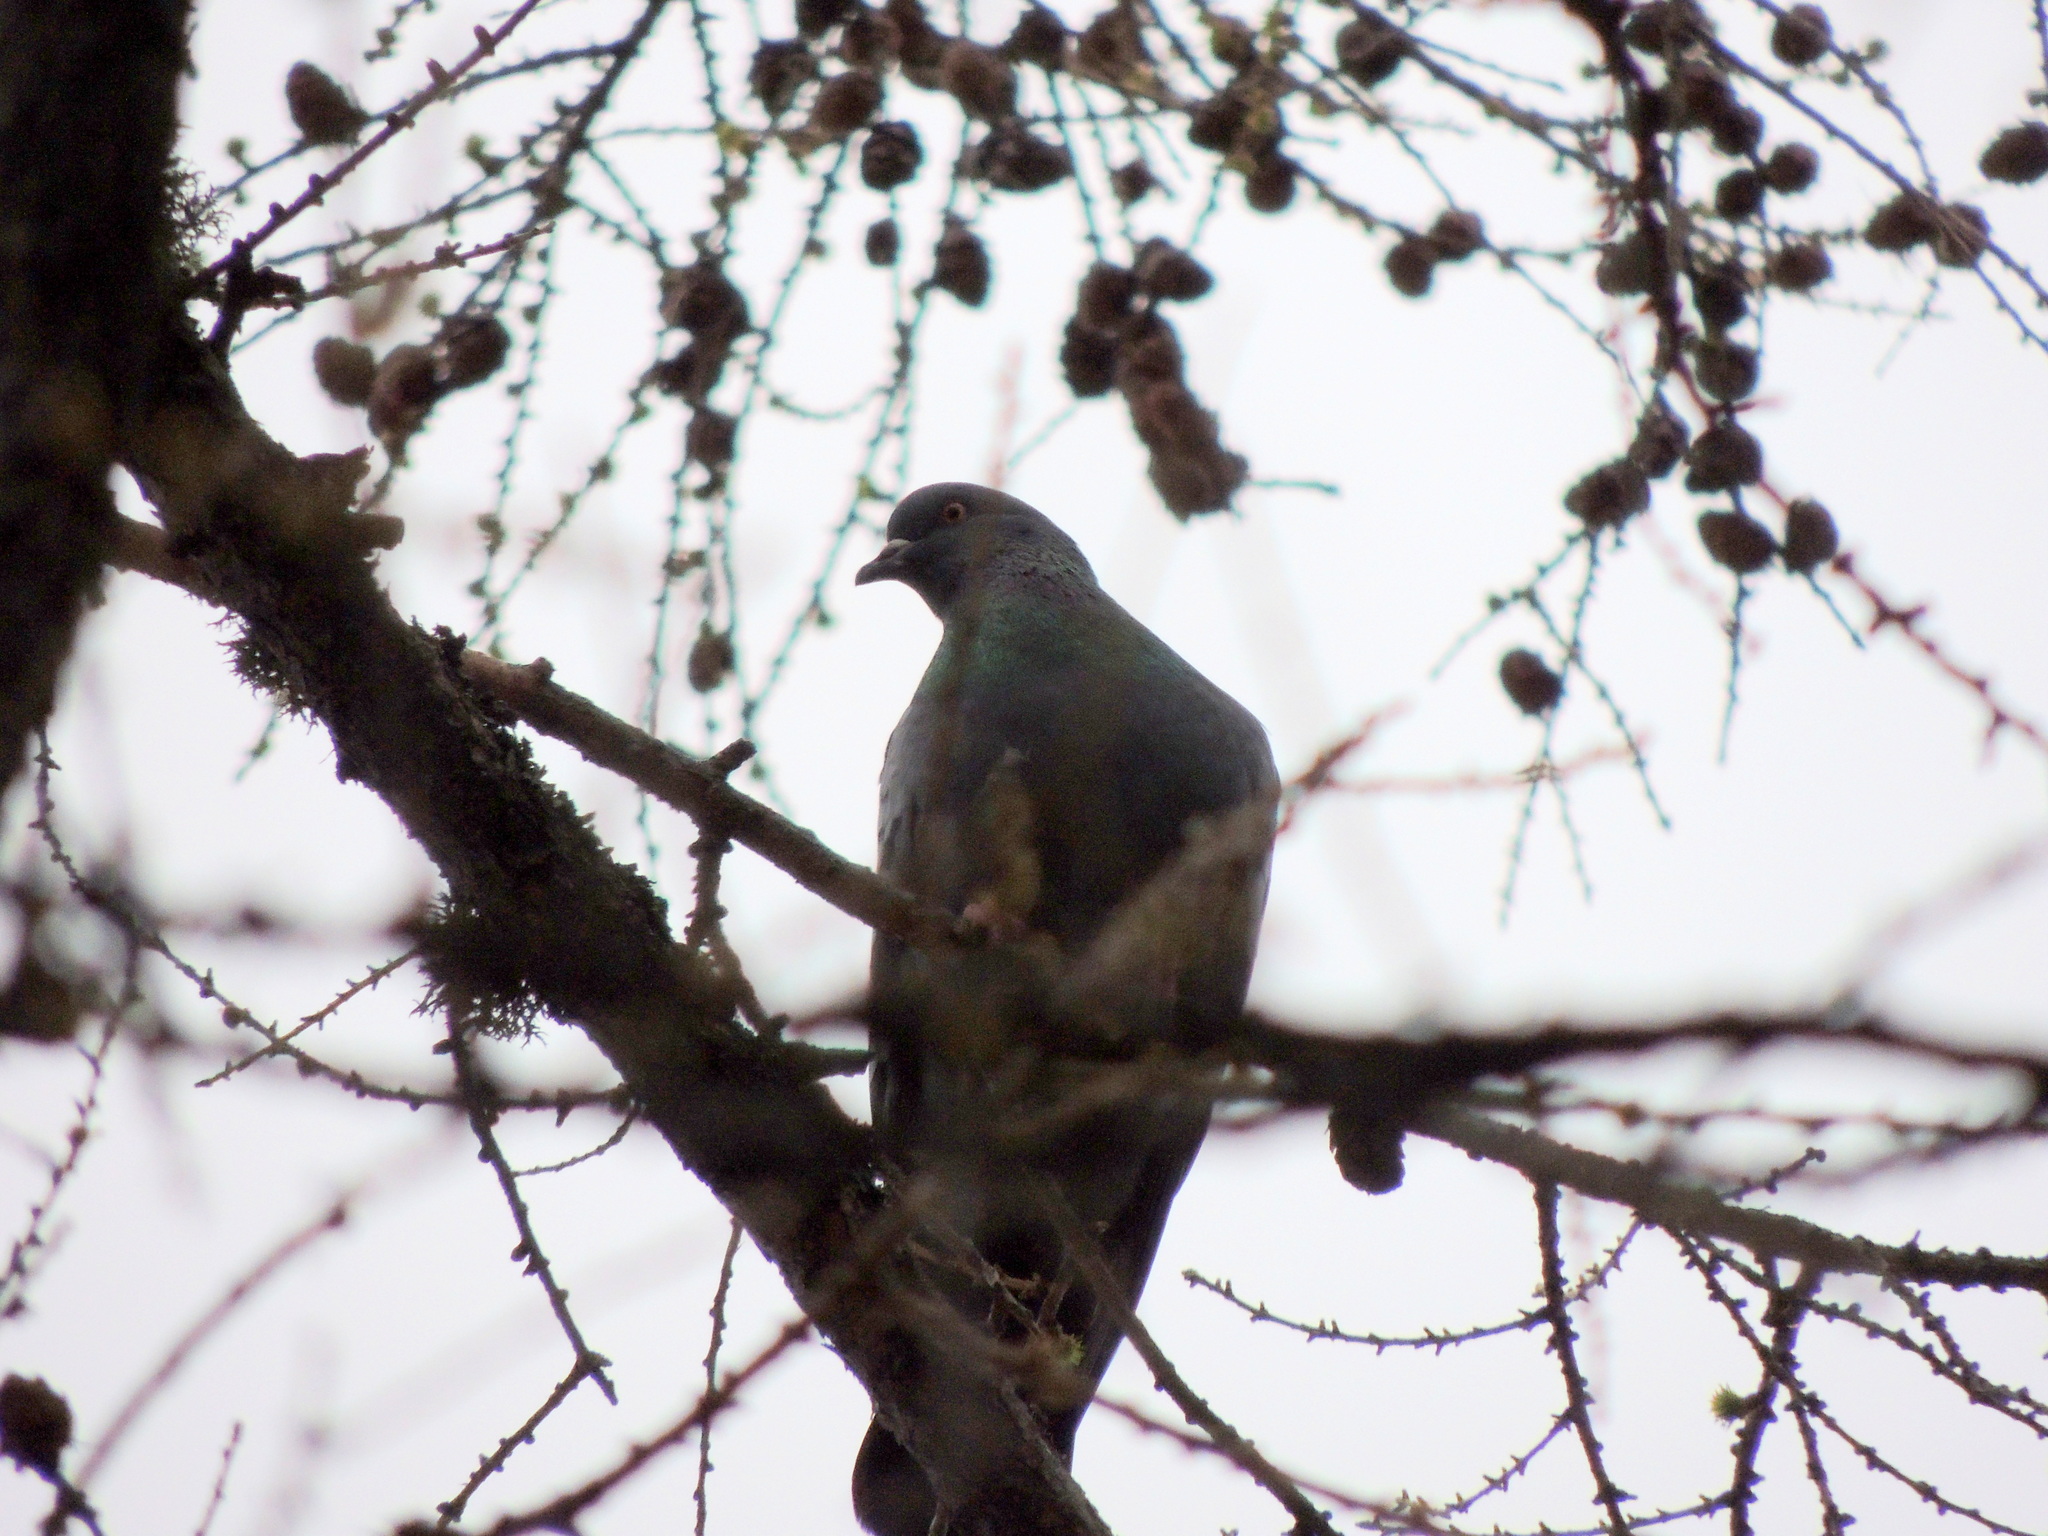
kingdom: Animalia
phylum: Chordata
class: Aves
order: Columbiformes
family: Columbidae
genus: Columba
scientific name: Columba livia
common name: Rock pigeon
